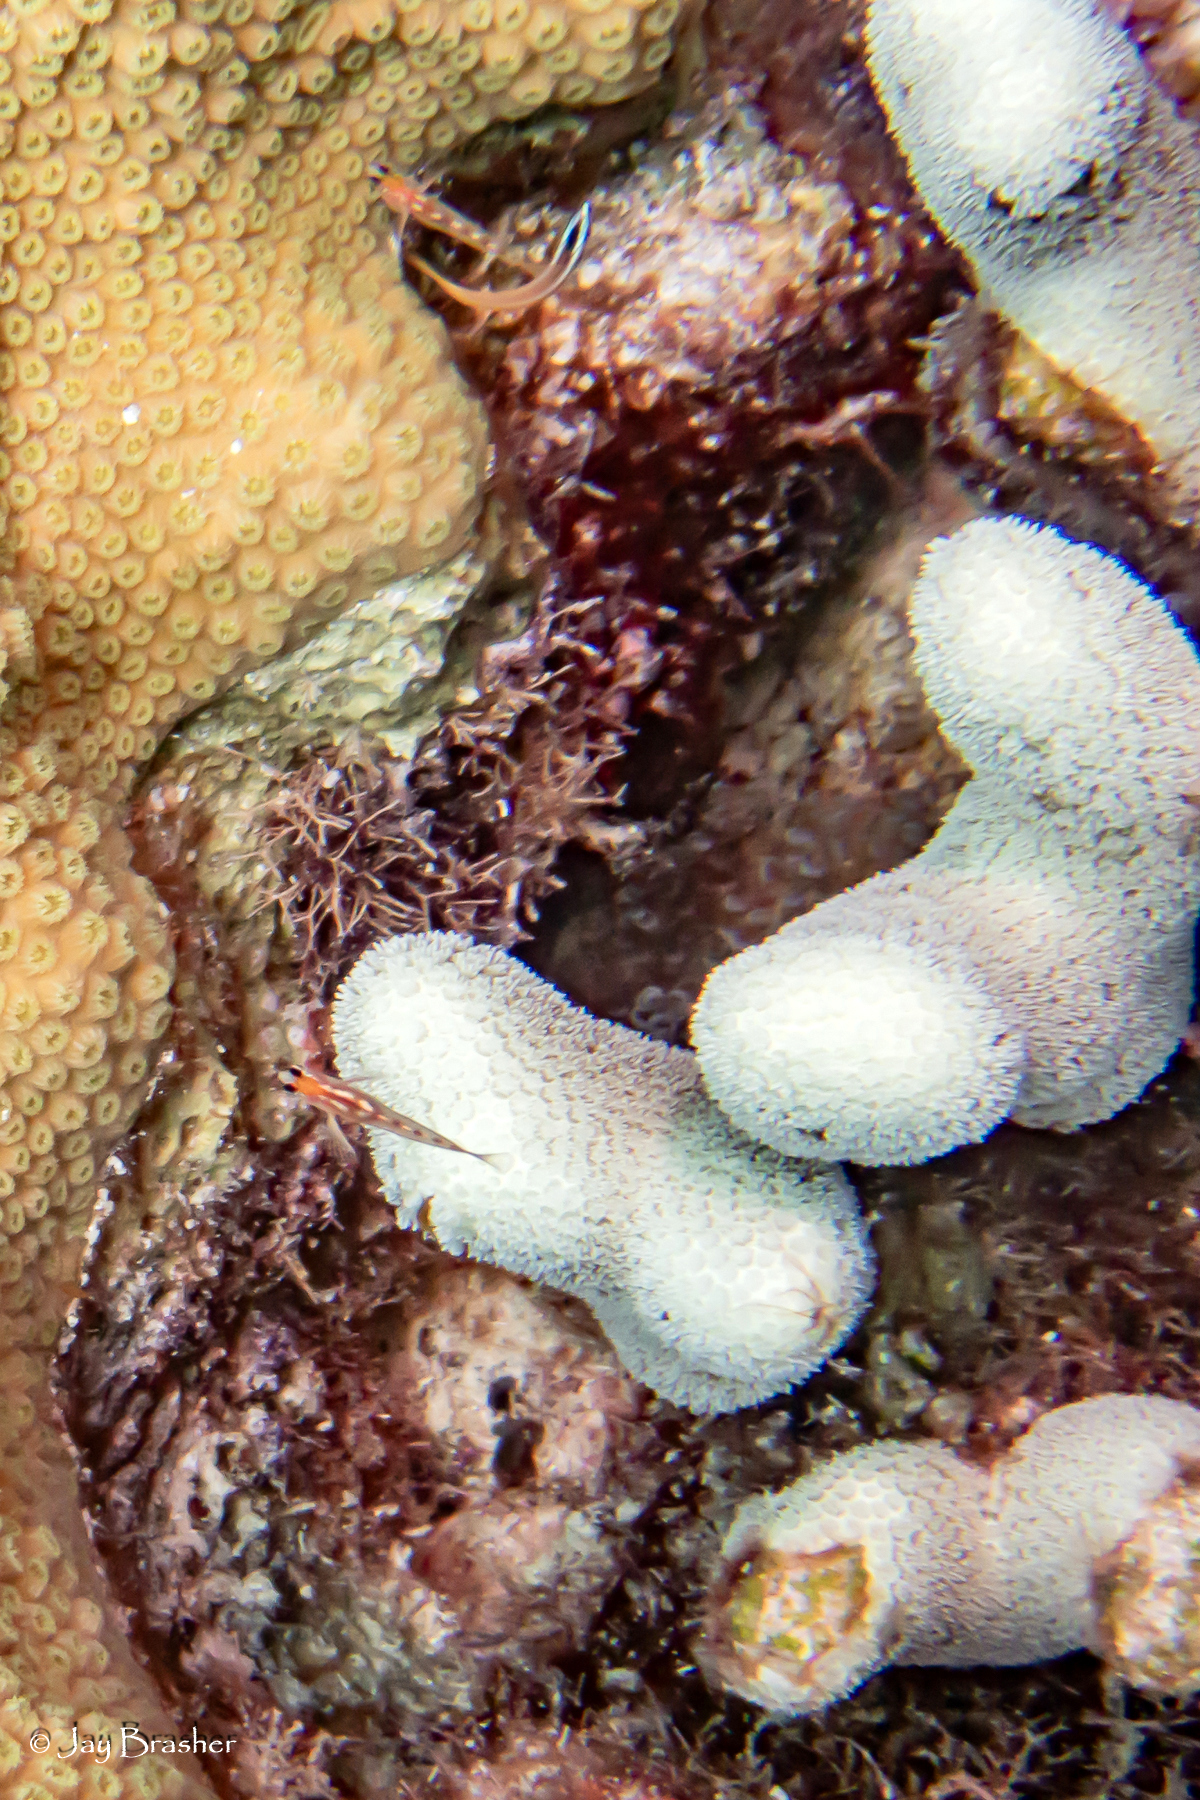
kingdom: Animalia
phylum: Cnidaria
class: Anthozoa
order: Scleractinia
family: Poritidae
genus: Porites
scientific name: Porites porites
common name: Finger coral
